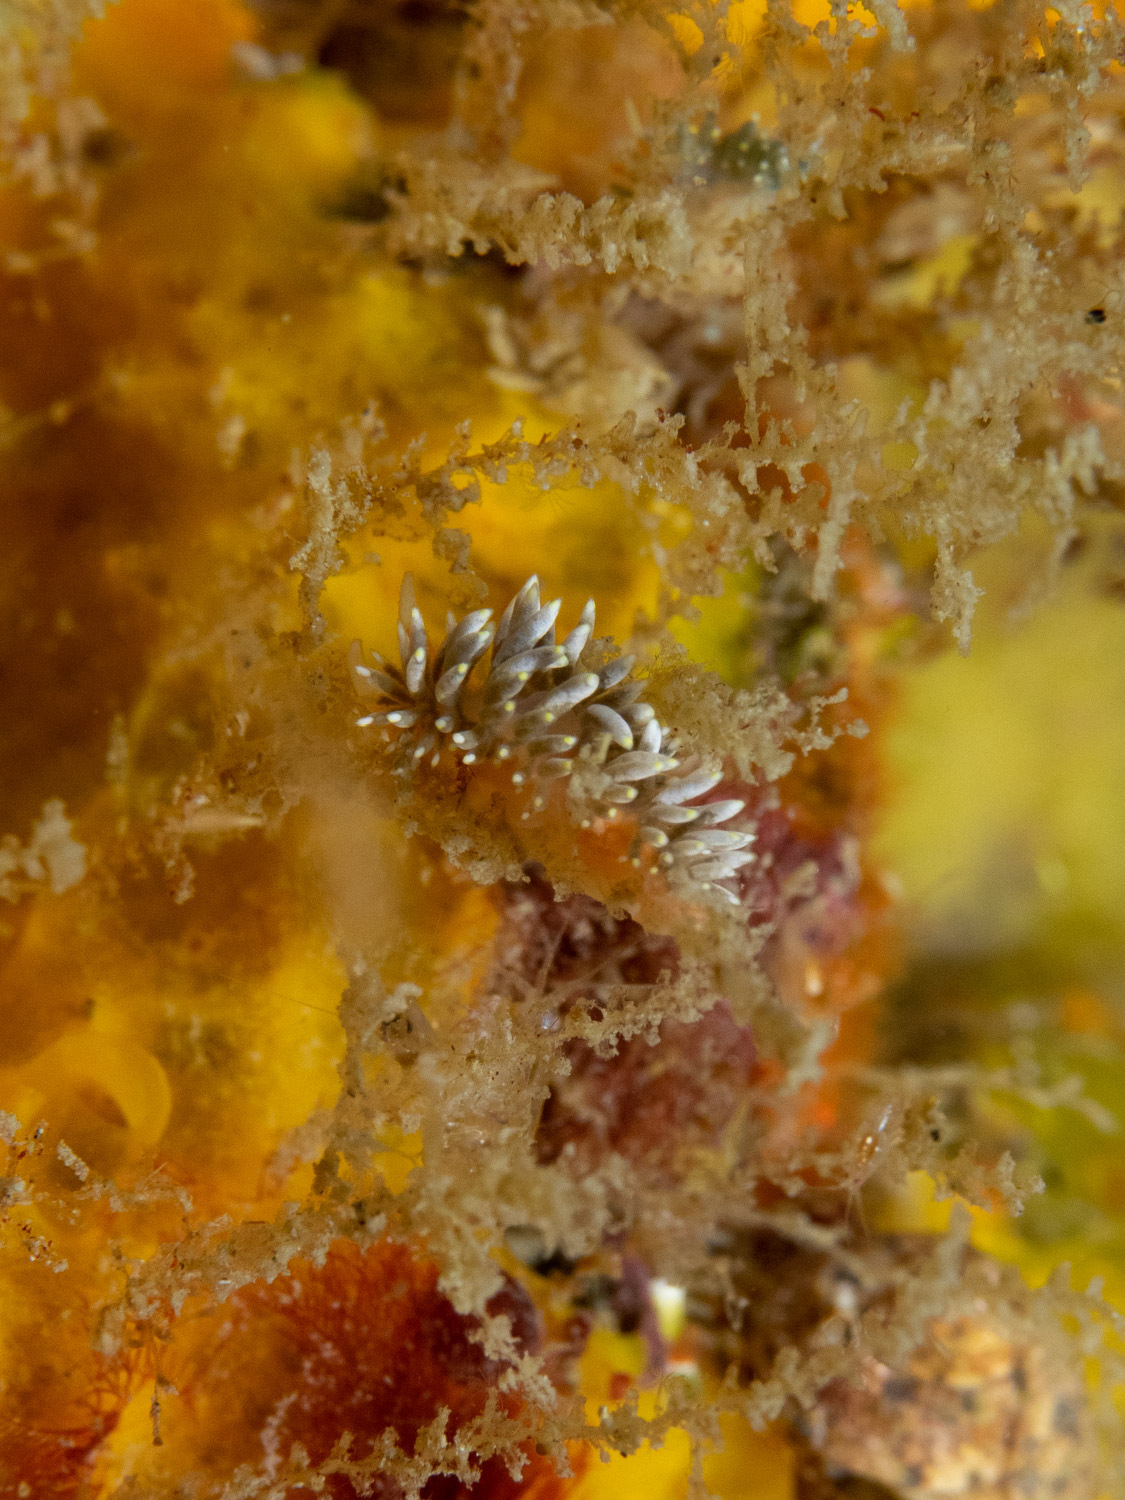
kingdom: Animalia
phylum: Mollusca
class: Gastropoda
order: Nudibranchia
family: Trinchesiidae
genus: Trinchesia
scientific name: Trinchesia catachroma
